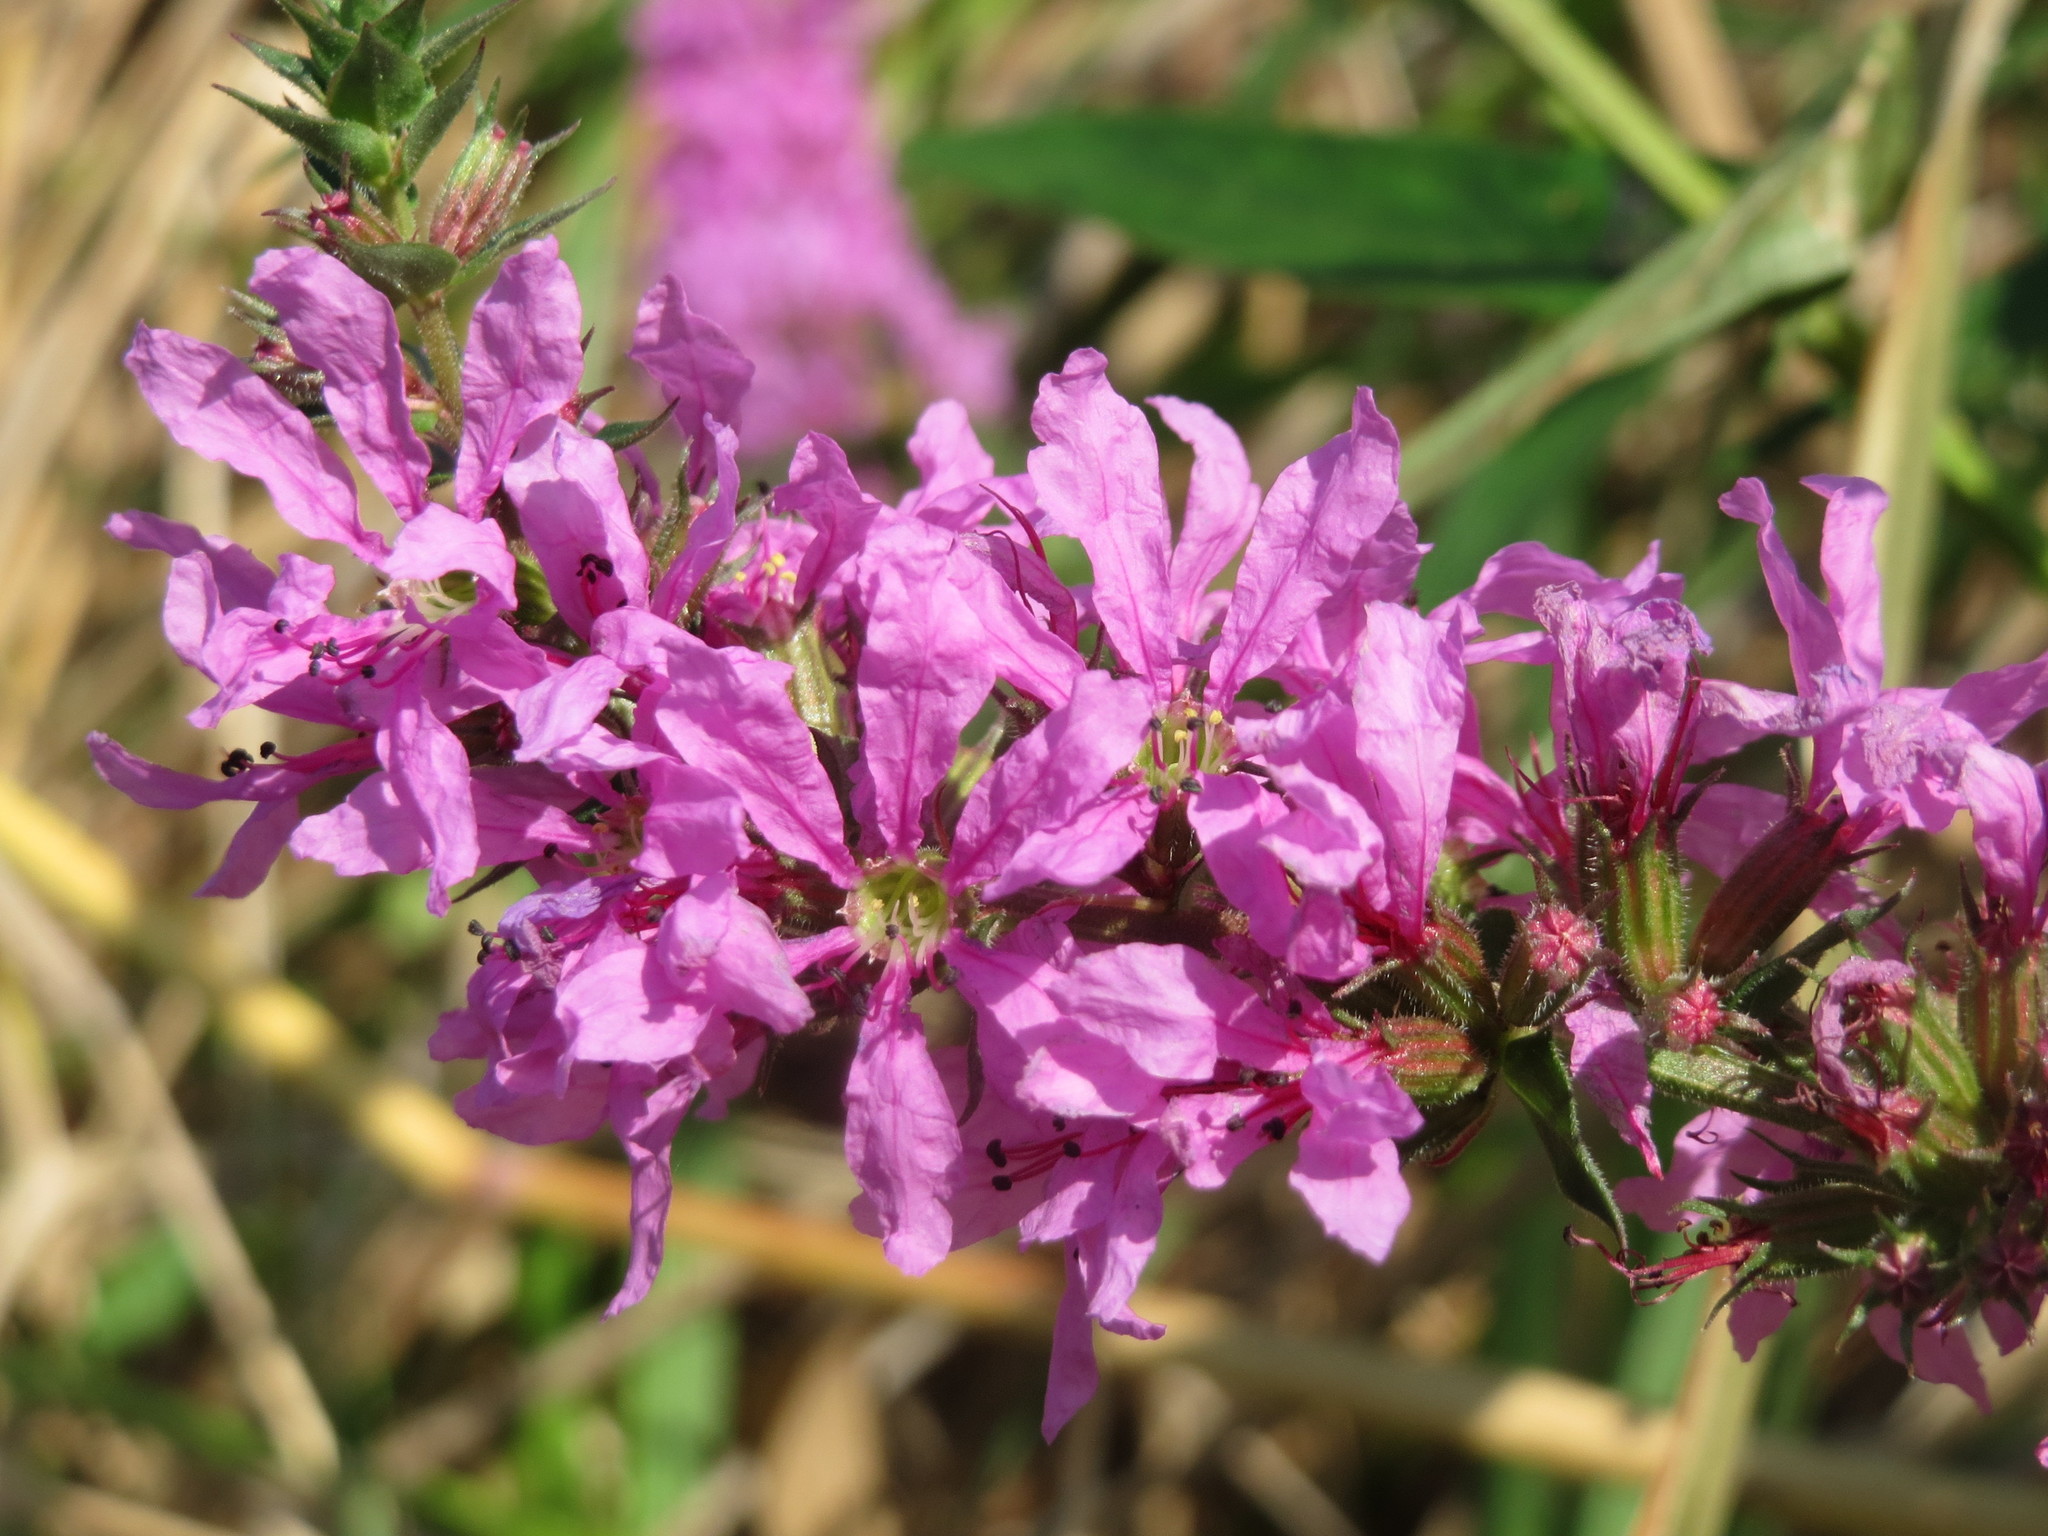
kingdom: Plantae
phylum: Tracheophyta
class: Magnoliopsida
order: Myrtales
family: Lythraceae
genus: Lythrum
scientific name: Lythrum salicaria
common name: Purple loosestrife
